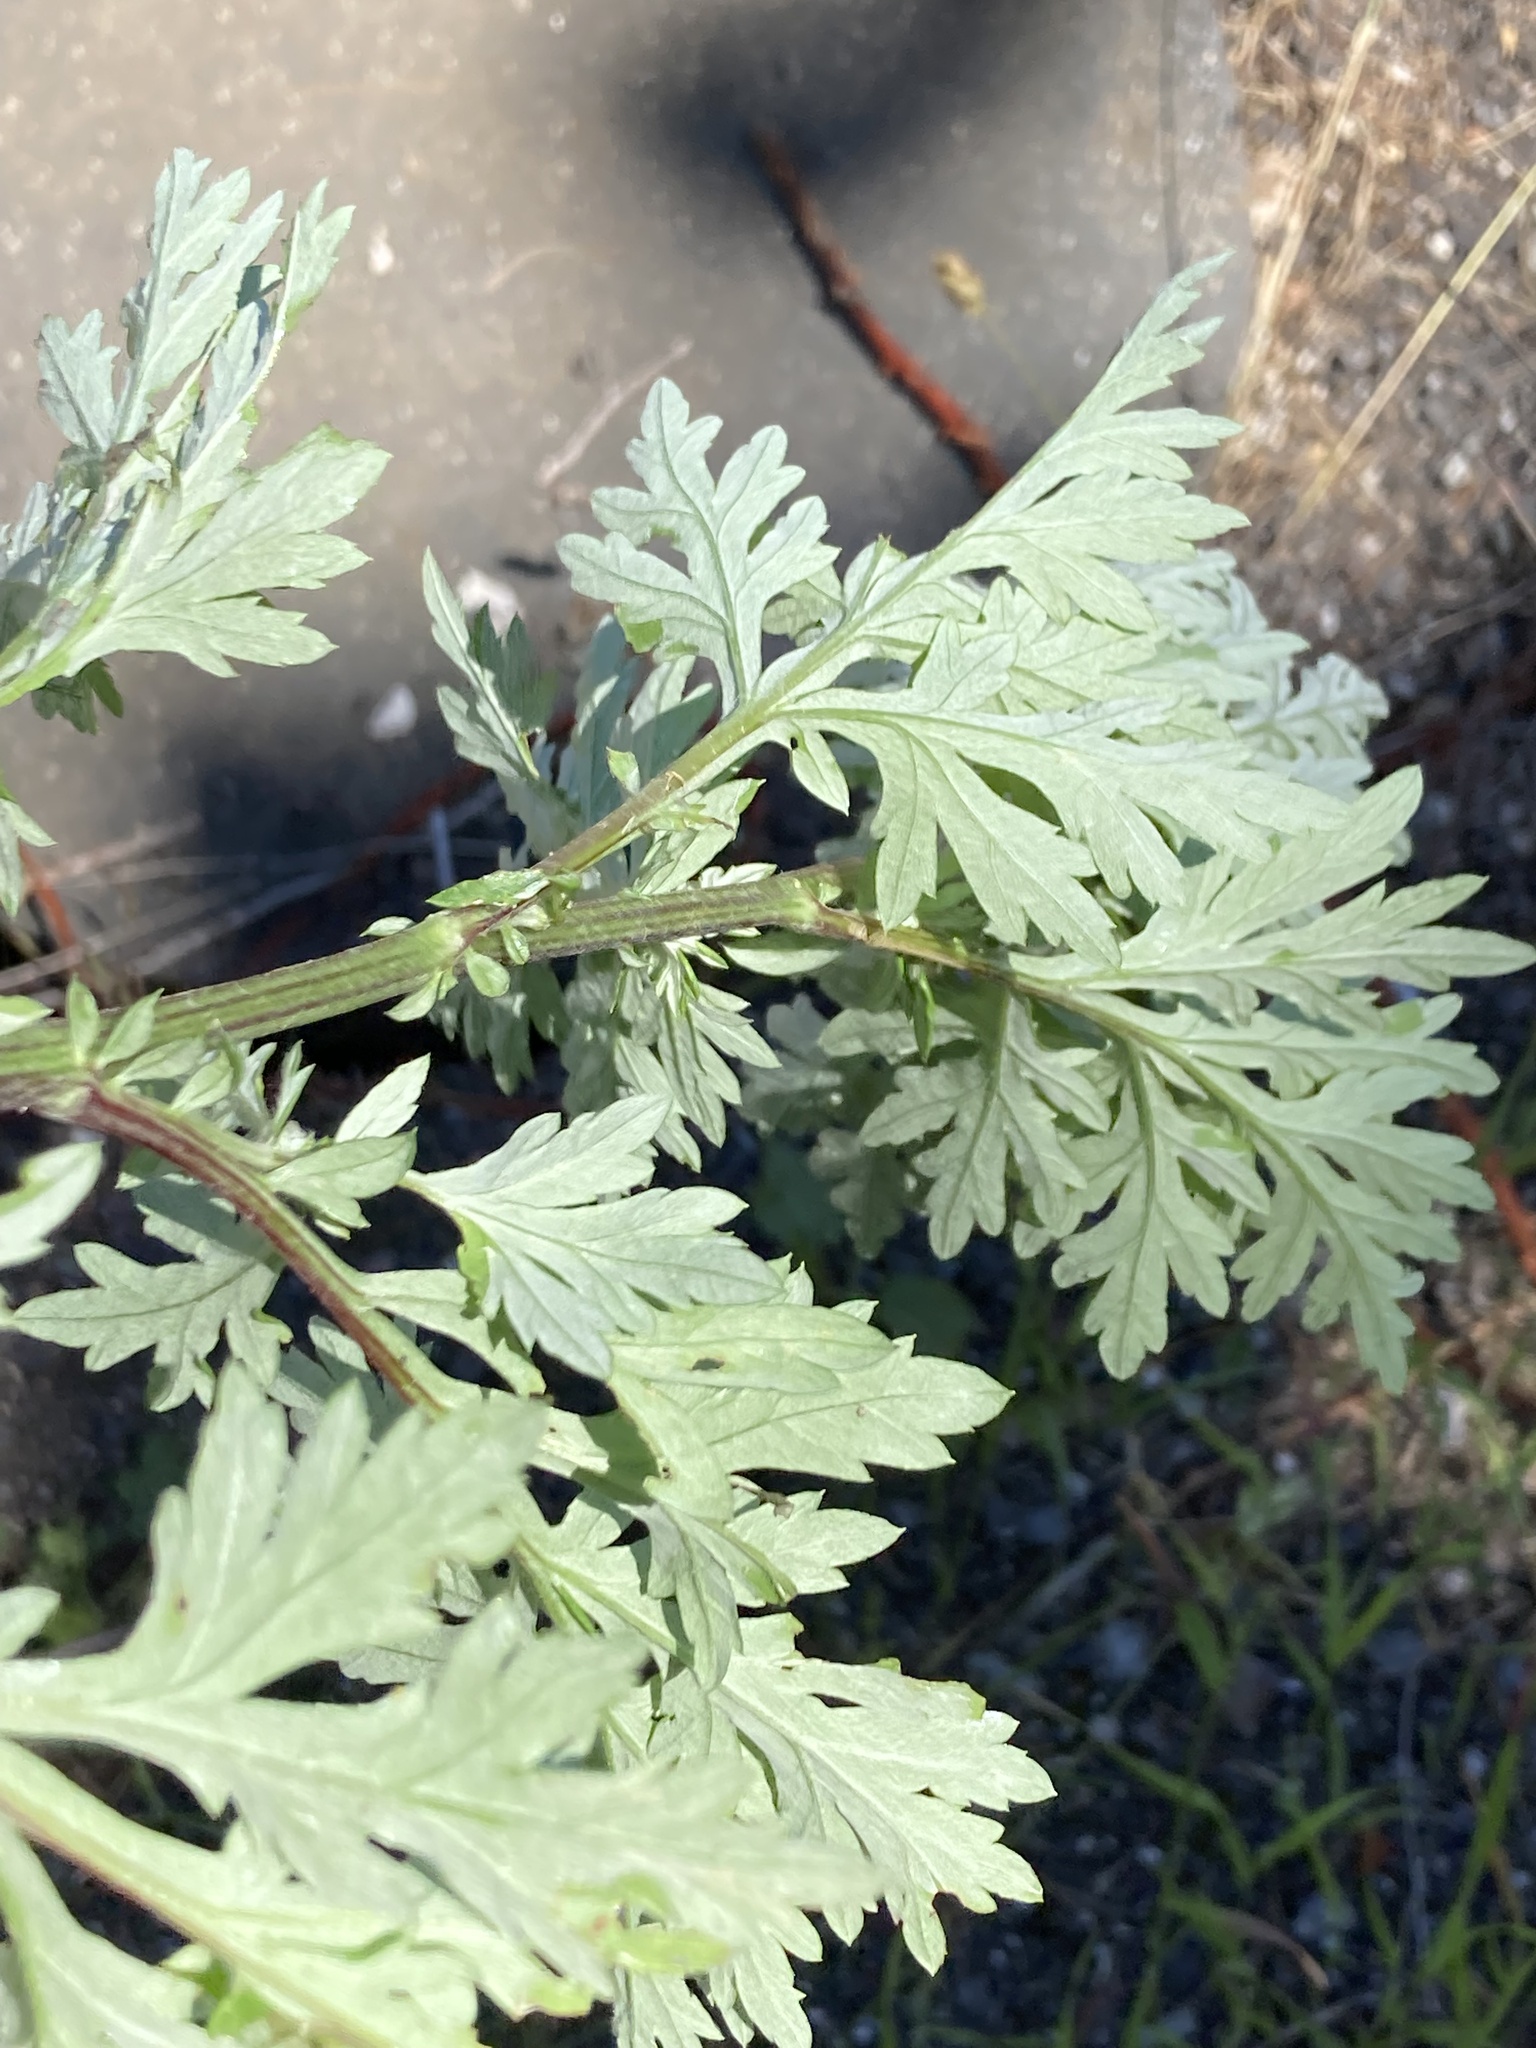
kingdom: Animalia
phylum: Arthropoda
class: Insecta
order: Diptera
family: Cecidomyiidae
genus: Rhopalomyia
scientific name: Rhopalomyia baccarum
